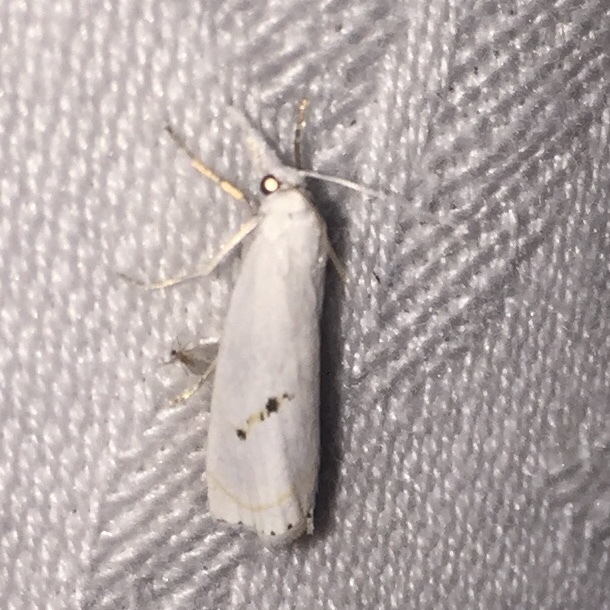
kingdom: Animalia
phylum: Arthropoda
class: Insecta
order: Lepidoptera
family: Crambidae
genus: Crambus
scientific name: Crambus Arequipa turbatella
